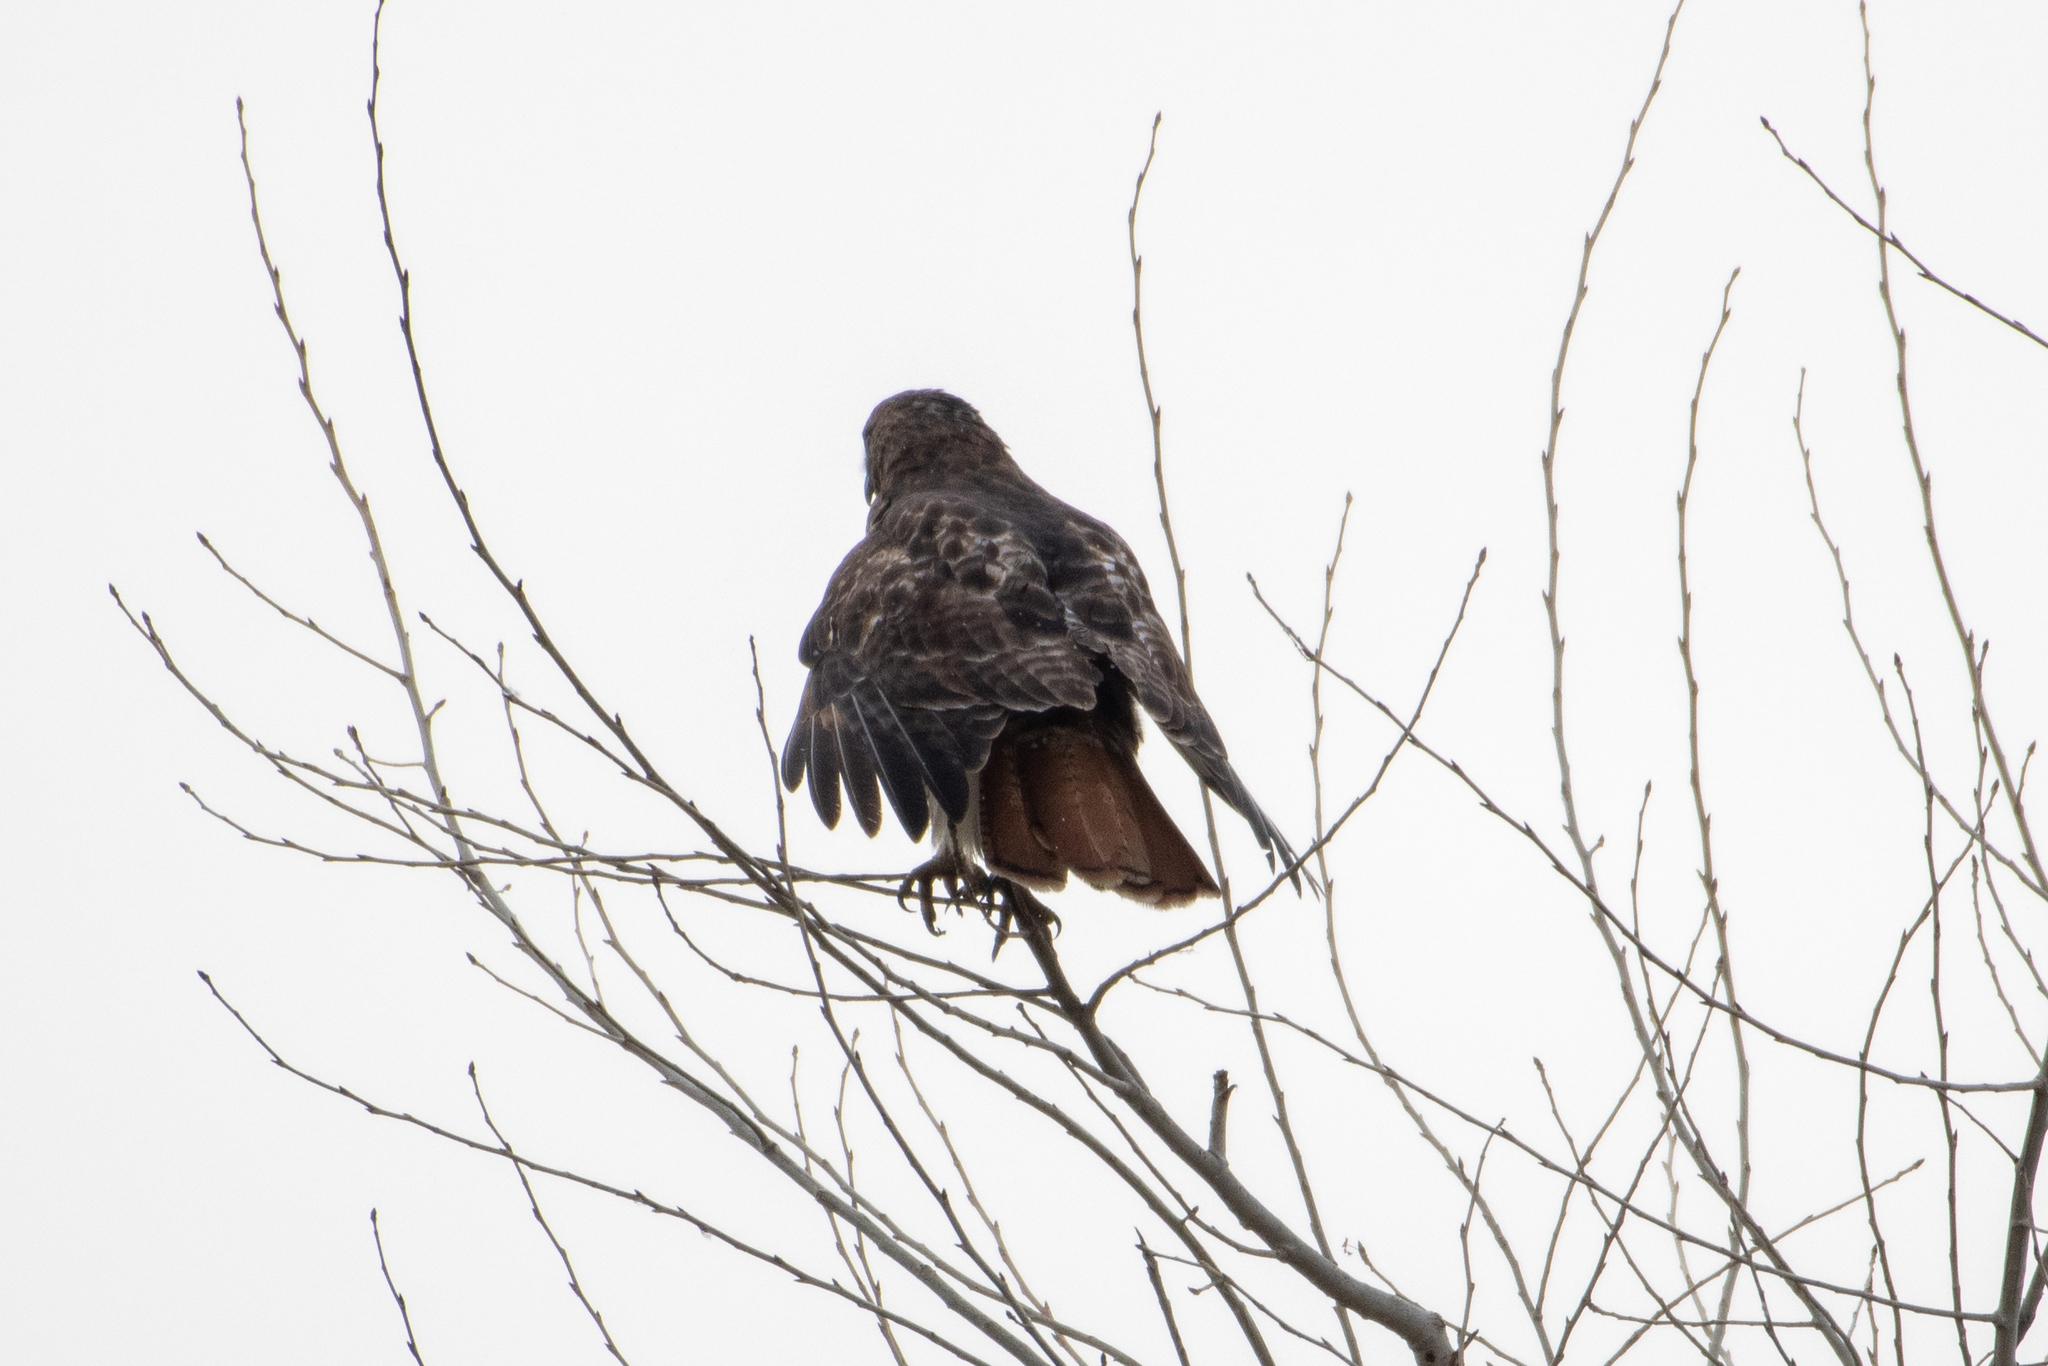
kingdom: Animalia
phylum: Chordata
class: Aves
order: Accipitriformes
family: Accipitridae
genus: Buteo
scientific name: Buteo jamaicensis
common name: Red-tailed hawk
